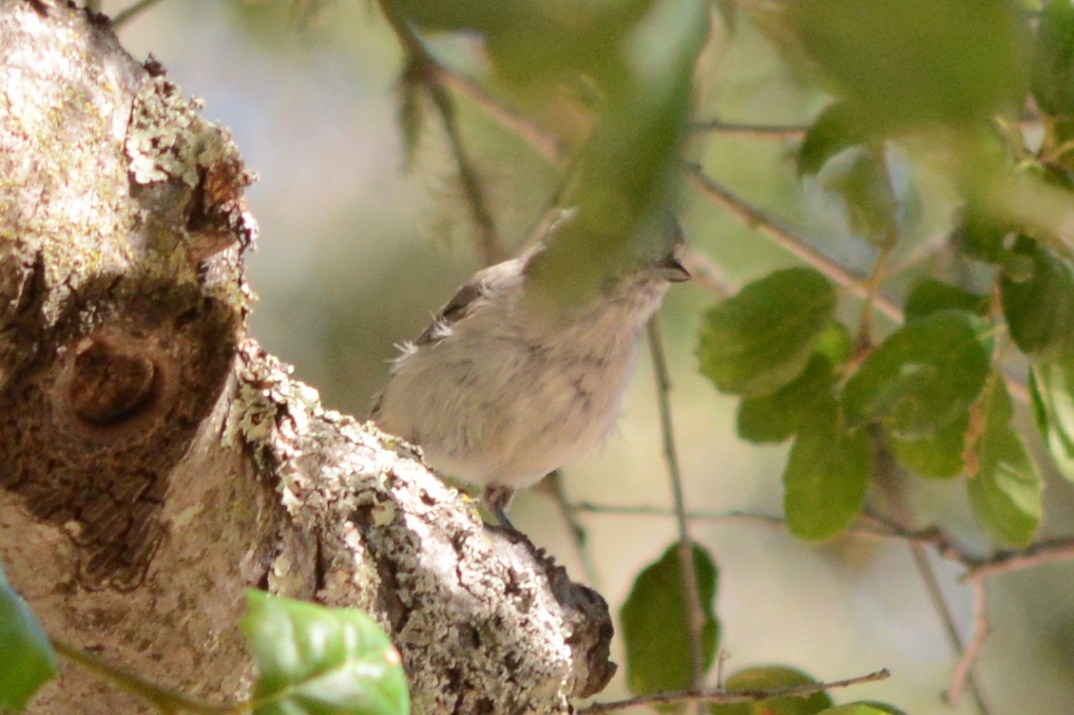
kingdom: Animalia
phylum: Chordata
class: Aves
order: Passeriformes
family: Paridae
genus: Baeolophus
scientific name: Baeolophus inornatus
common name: Oak titmouse
